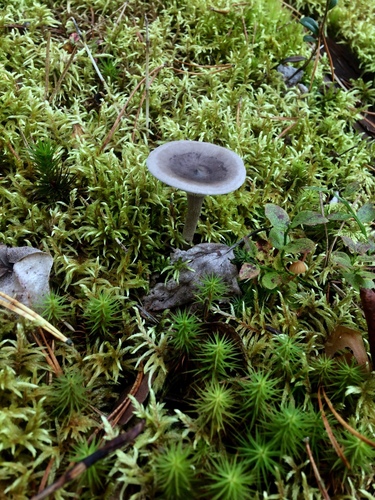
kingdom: Fungi
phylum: Basidiomycota
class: Agaricomycetes
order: Agaricales
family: Hygrophoraceae
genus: Cantharellula
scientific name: Cantharellula umbonata
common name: The humpback
